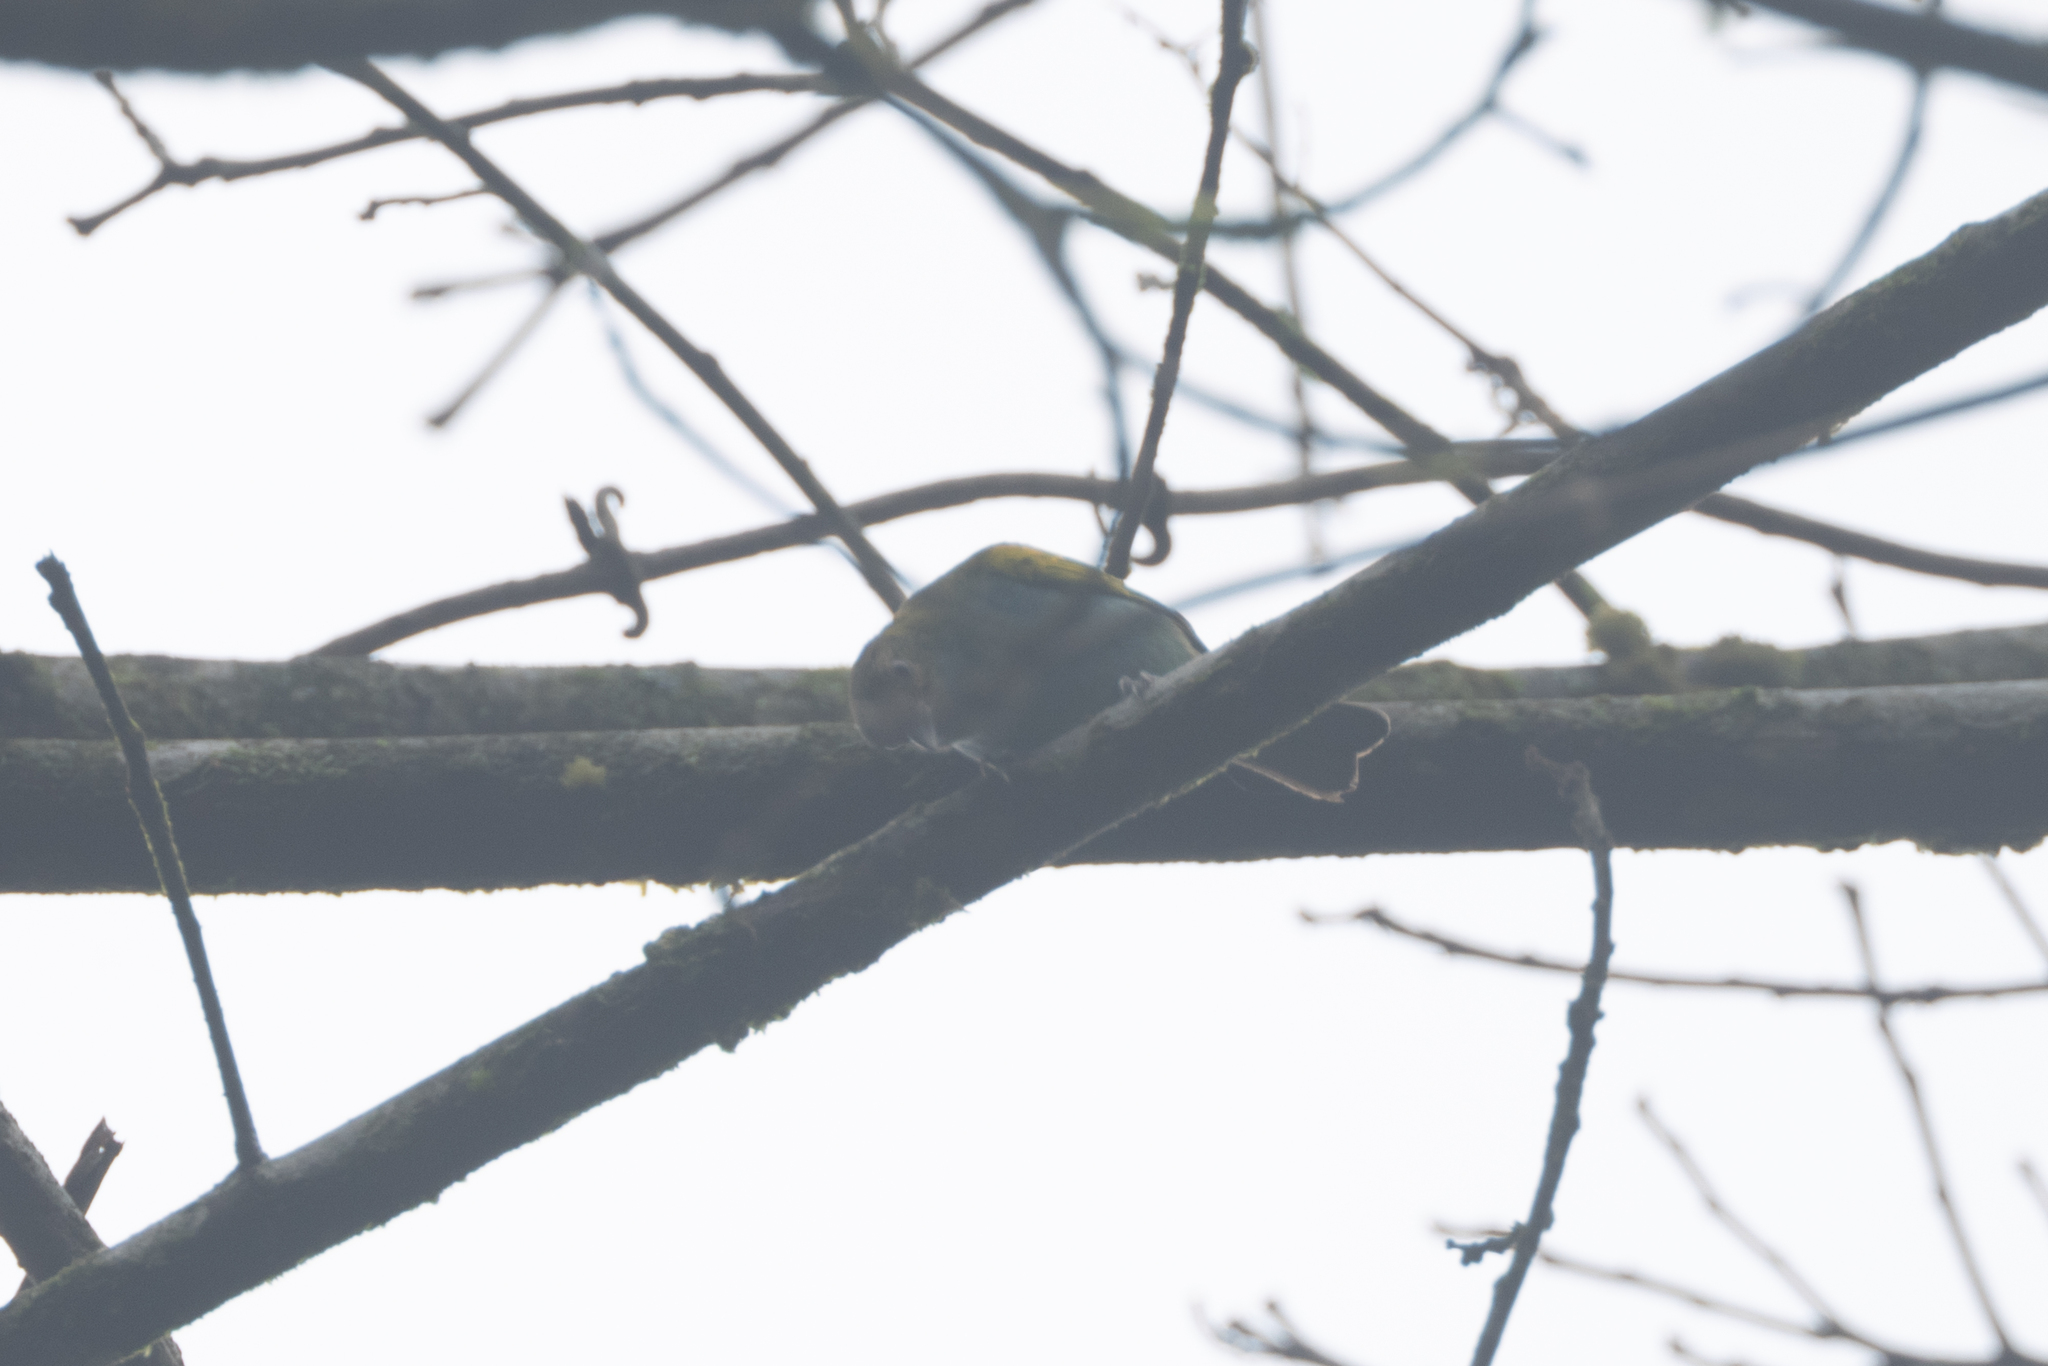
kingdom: Animalia
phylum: Chordata
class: Aves
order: Passeriformes
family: Thraupidae
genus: Tangara
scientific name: Tangara gyrola
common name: Bay-headed tanager
